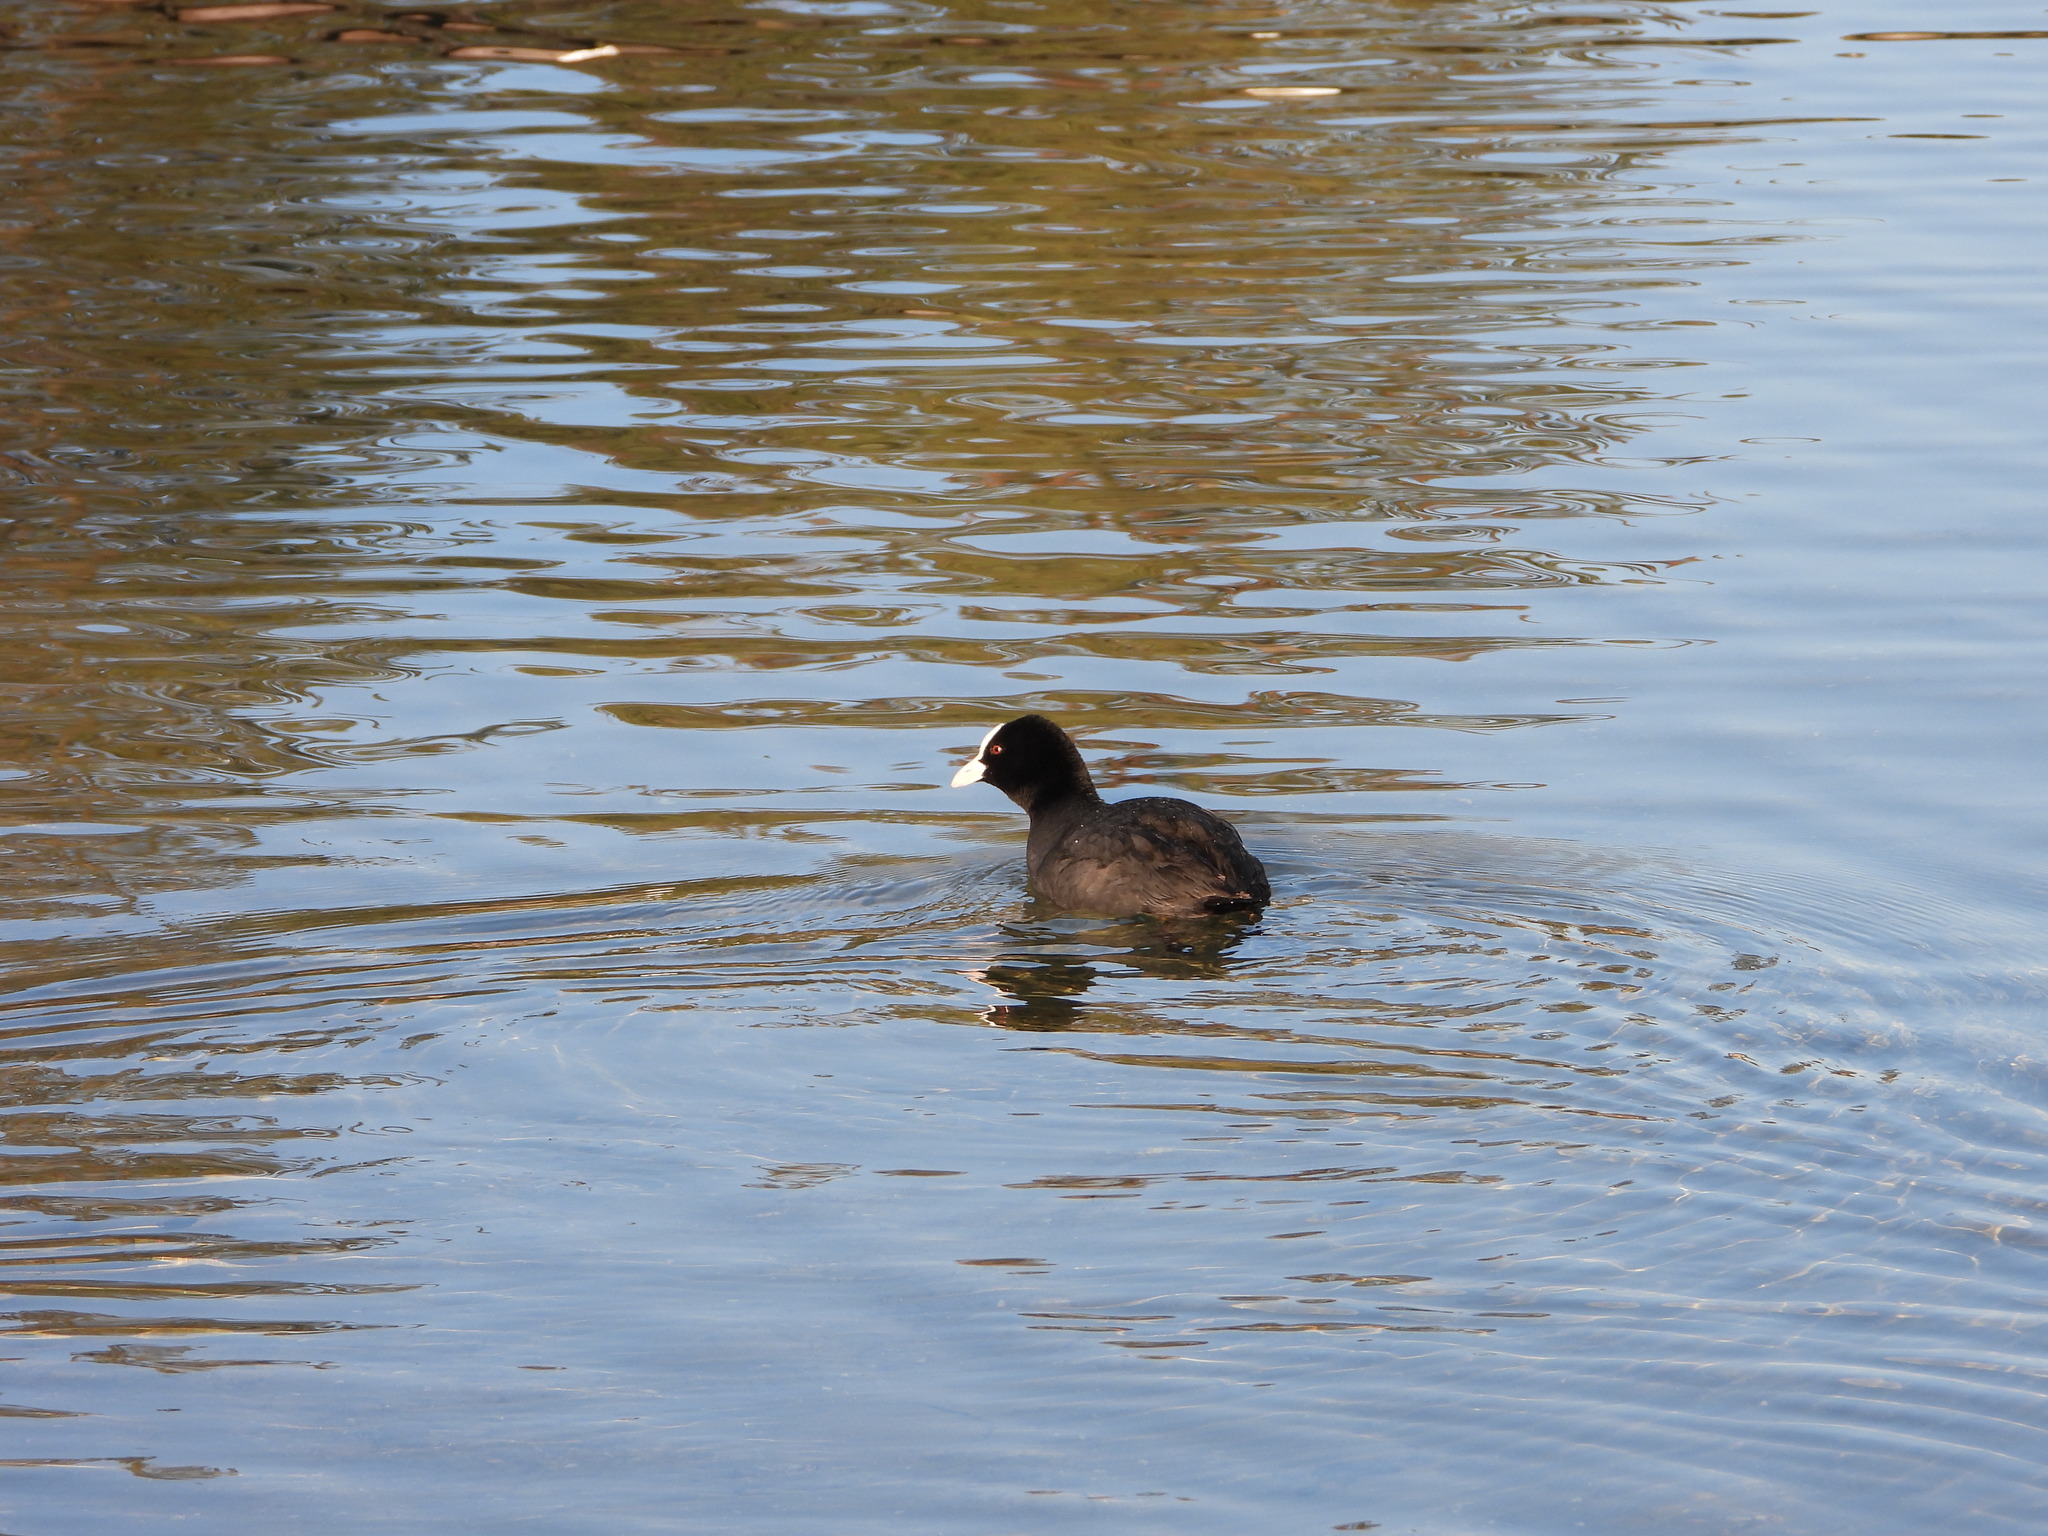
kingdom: Animalia
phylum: Chordata
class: Aves
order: Gruiformes
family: Rallidae
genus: Fulica
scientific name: Fulica atra
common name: Eurasian coot
